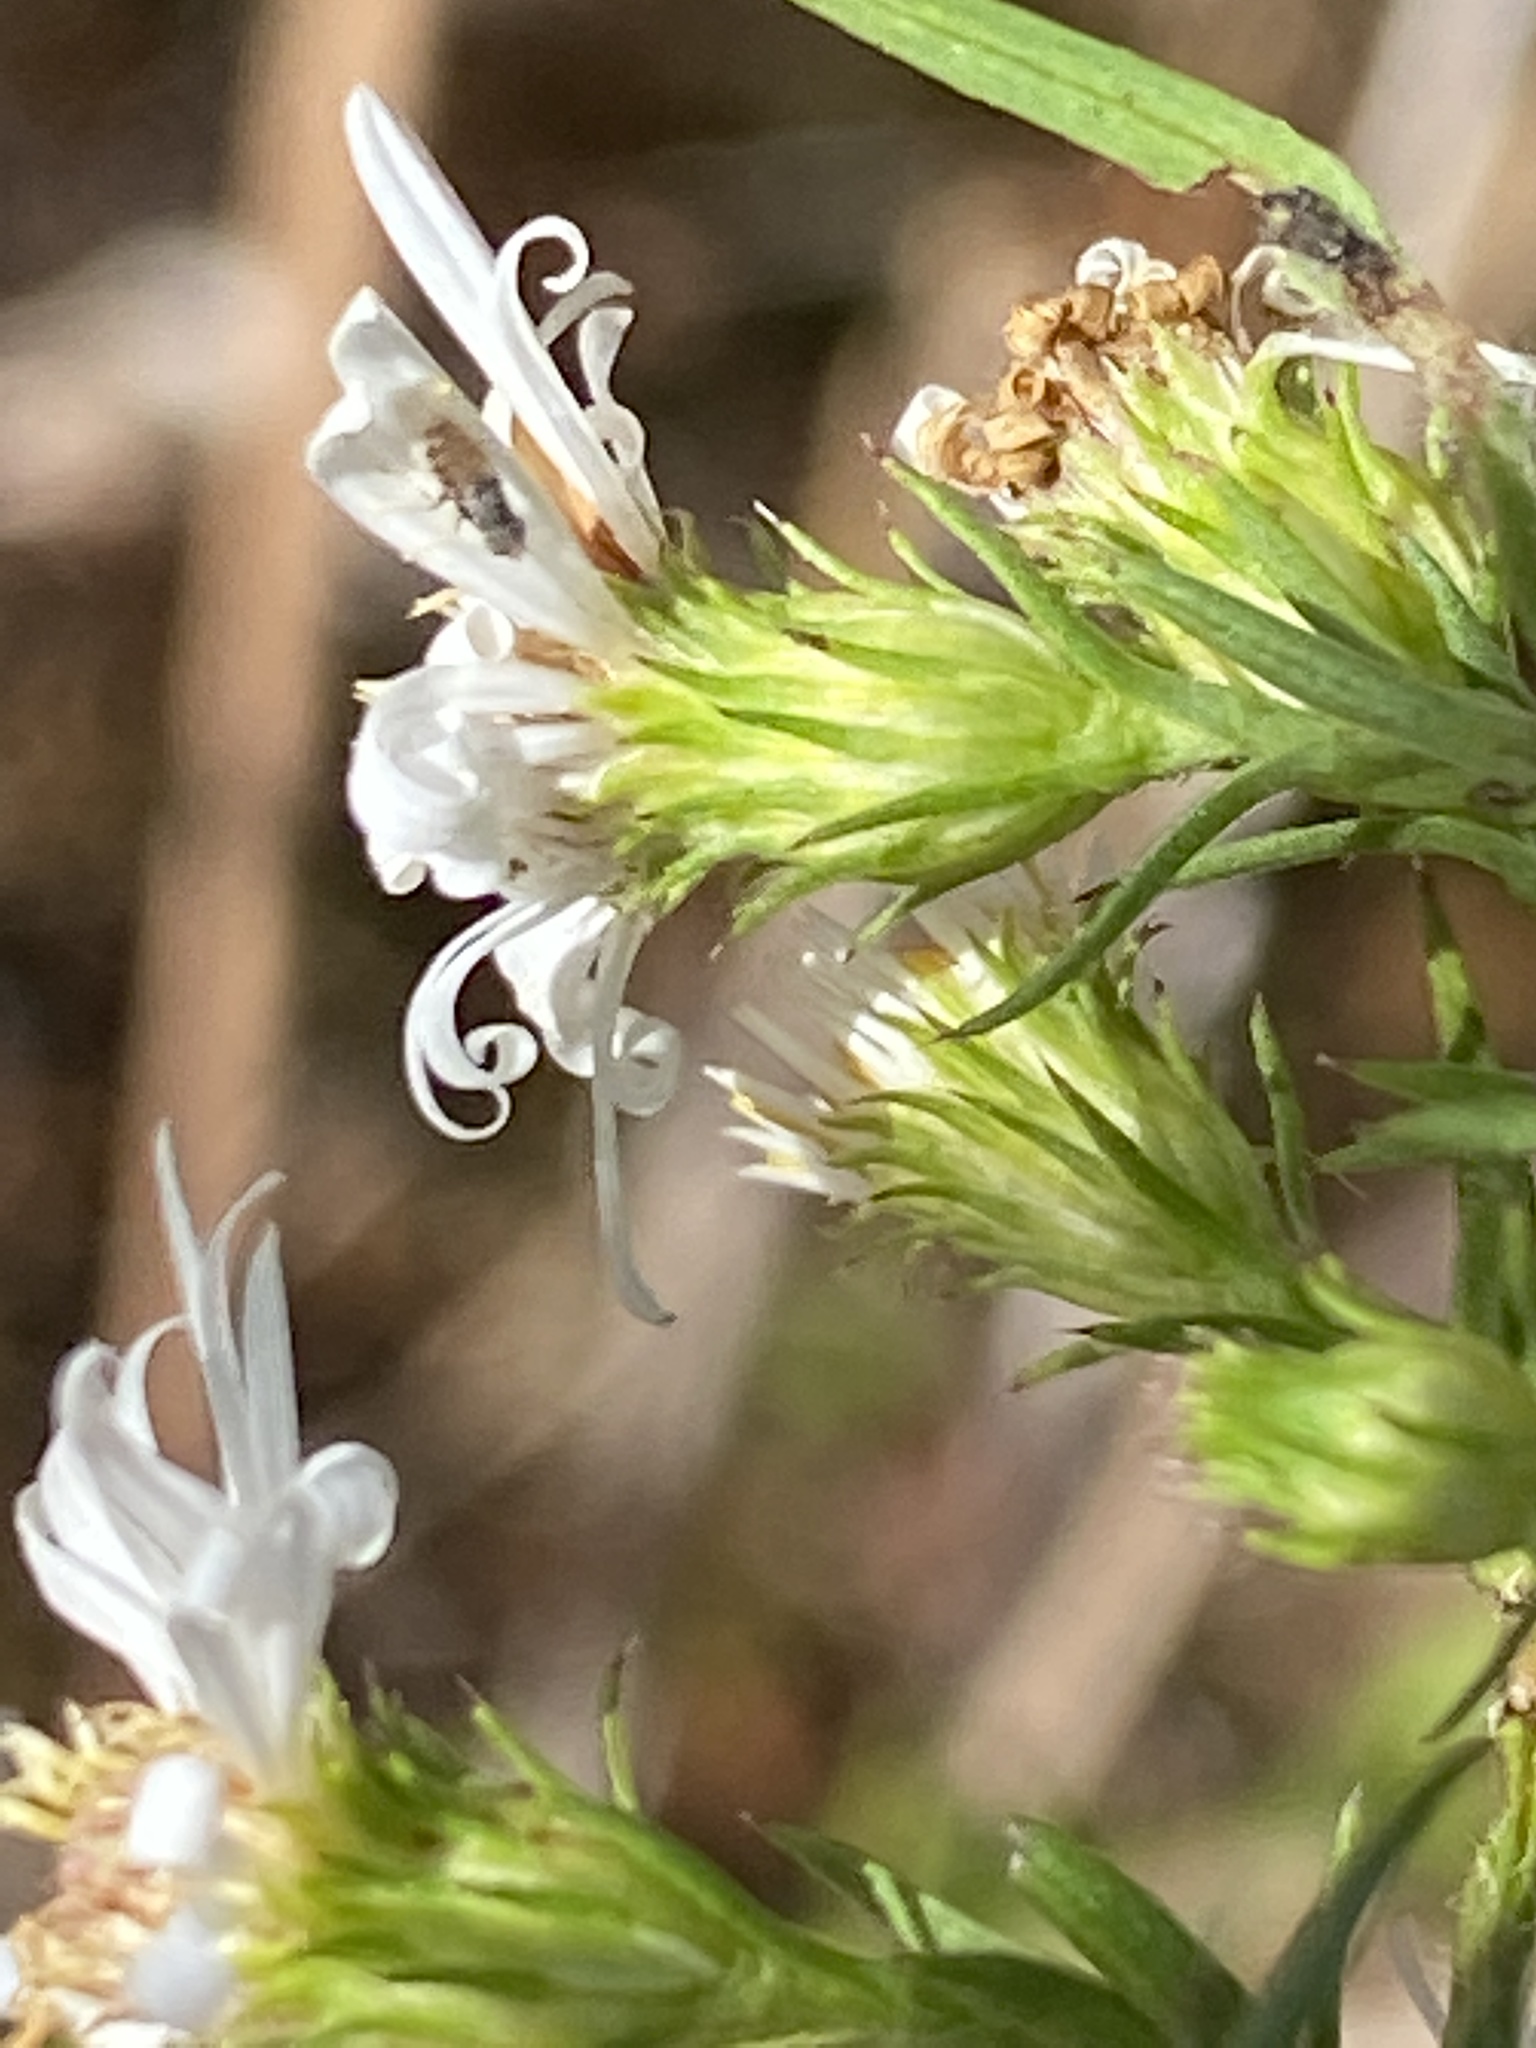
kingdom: Plantae
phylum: Tracheophyta
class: Magnoliopsida
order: Asterales
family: Asteraceae
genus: Symphyotrichum
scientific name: Symphyotrichum pilosum
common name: Awl aster
